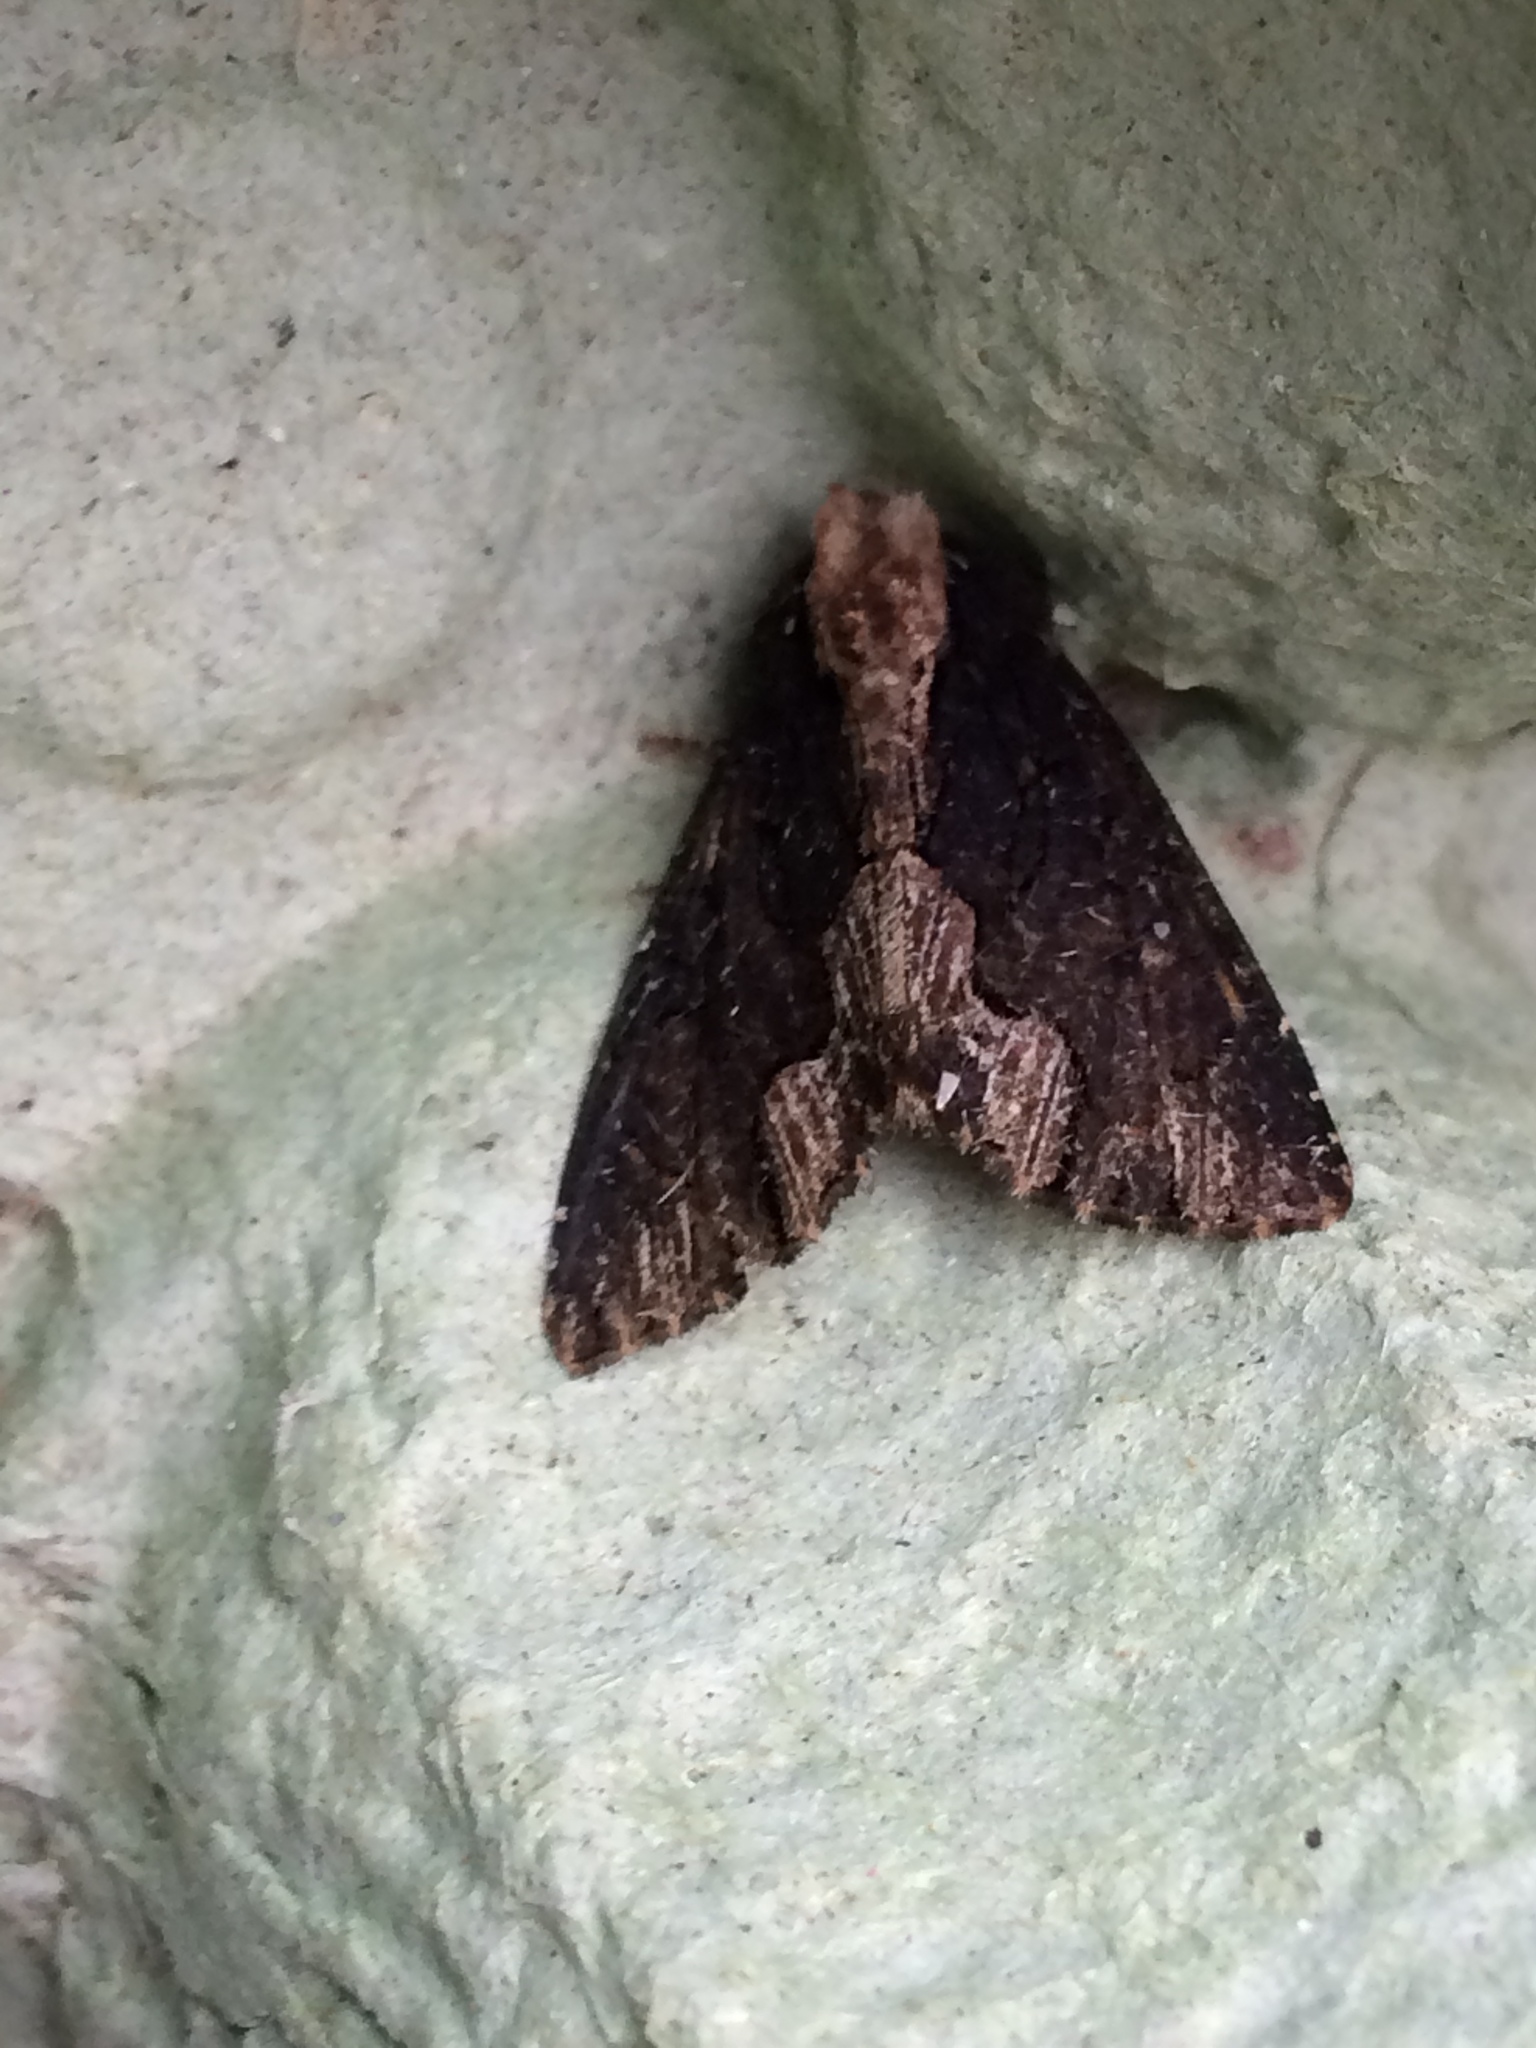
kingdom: Animalia
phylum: Arthropoda
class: Insecta
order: Lepidoptera
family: Noctuidae
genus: Dypterygia
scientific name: Dypterygia scabriuscula
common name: Bird's wing
